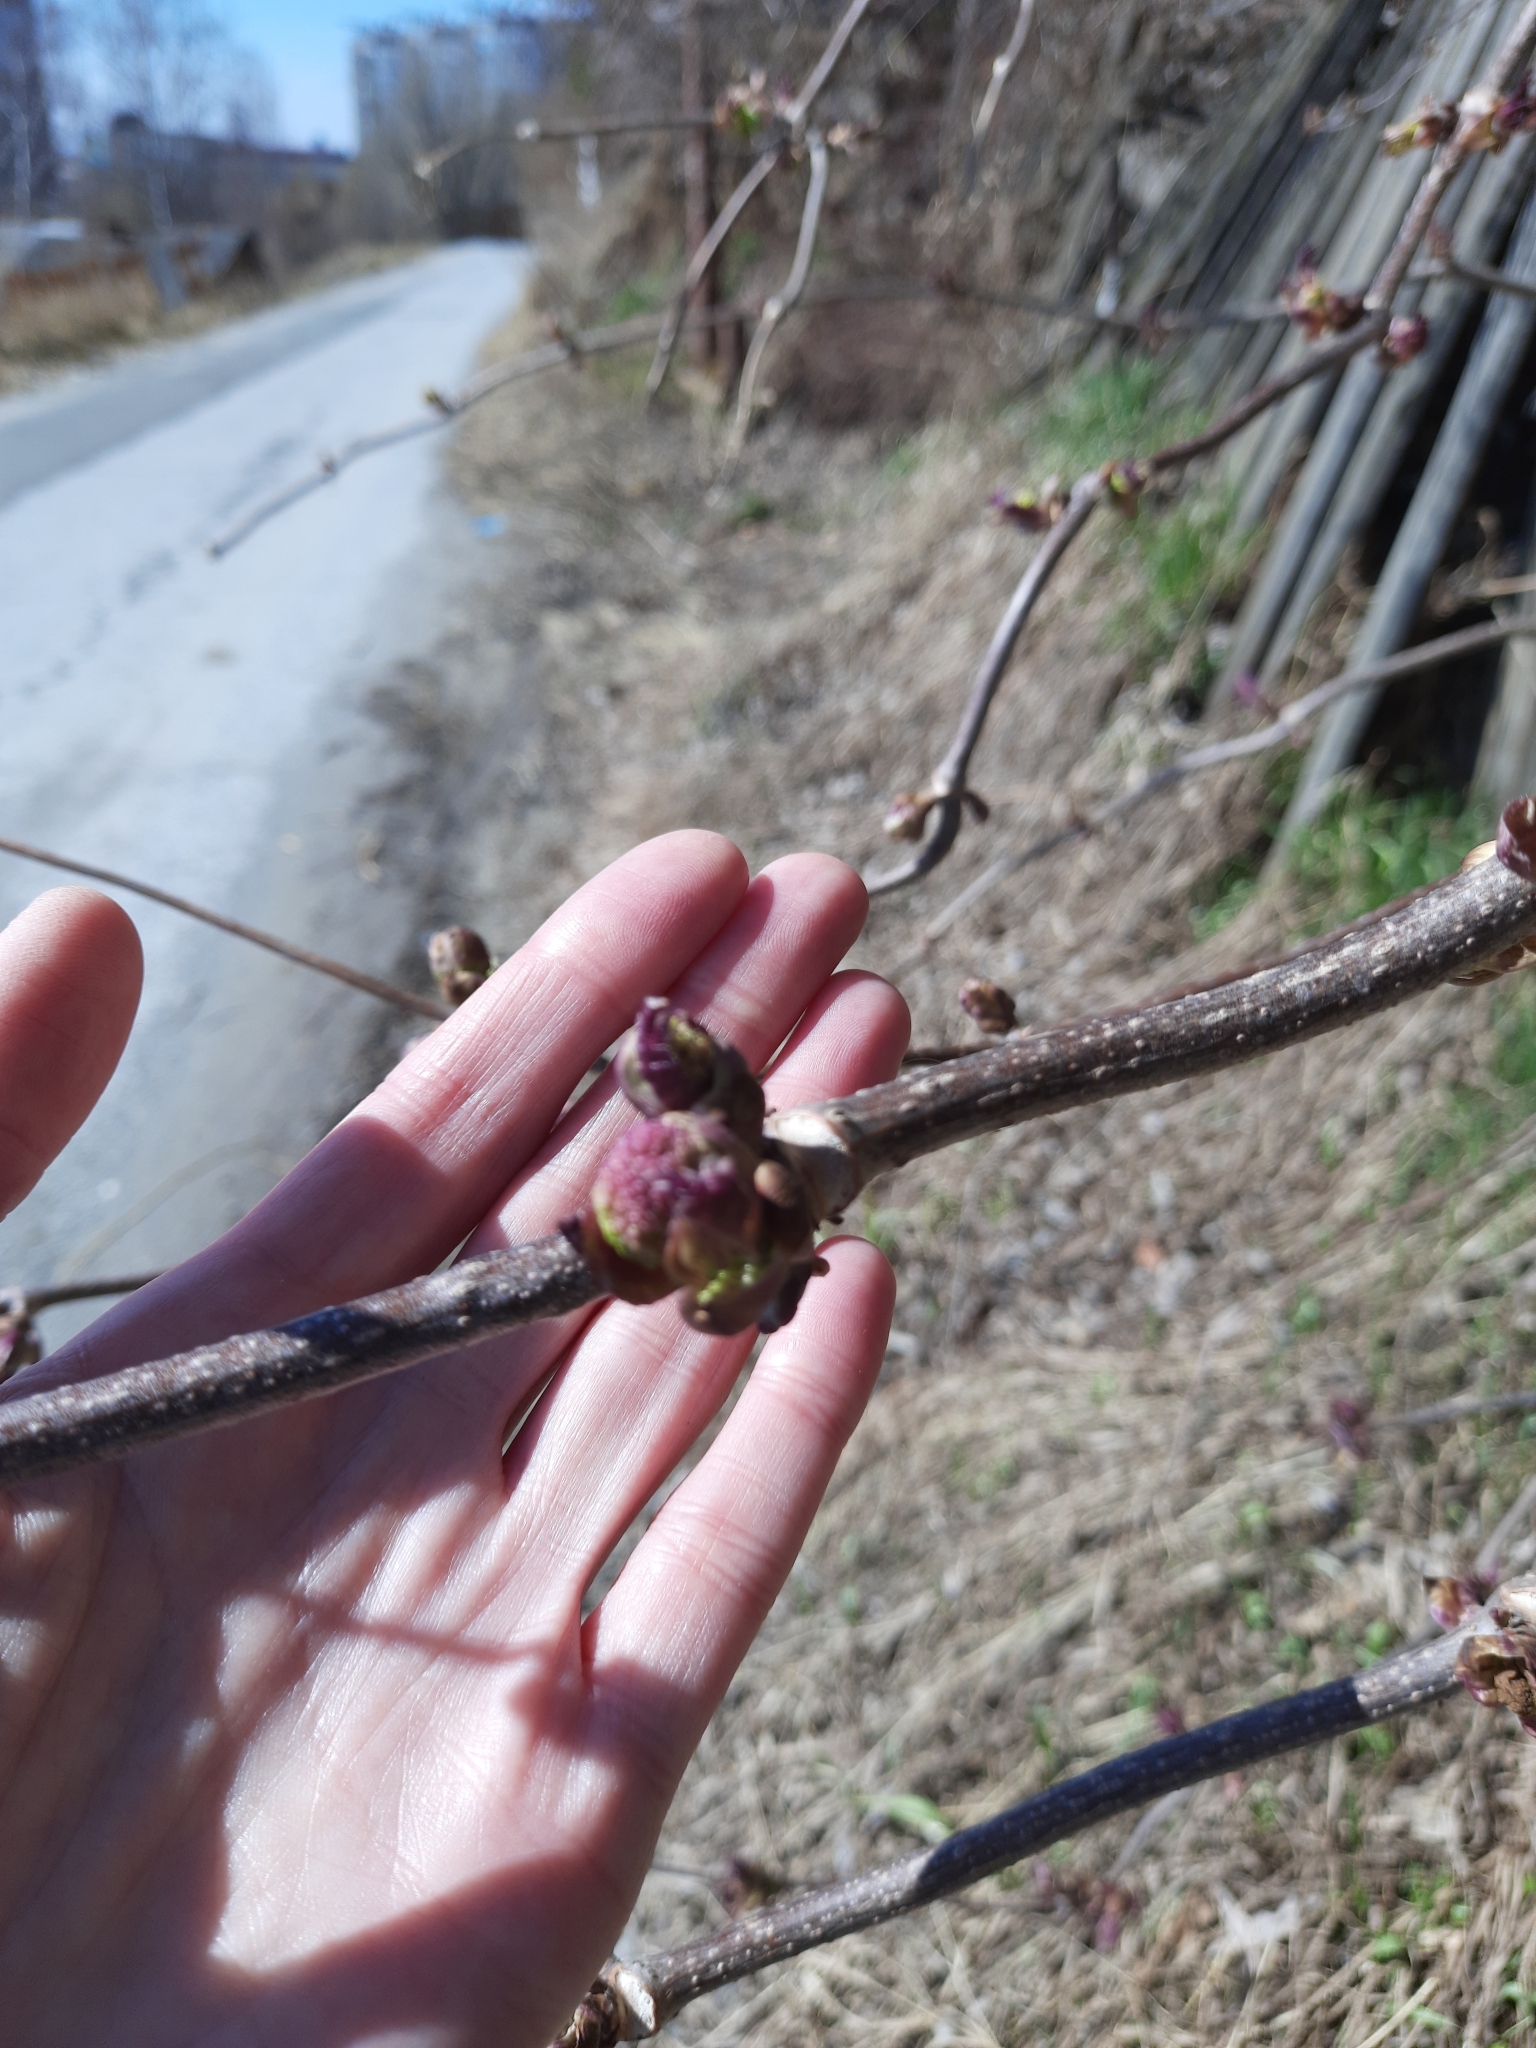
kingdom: Plantae
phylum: Tracheophyta
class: Magnoliopsida
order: Dipsacales
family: Viburnaceae
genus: Sambucus
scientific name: Sambucus sibirica
